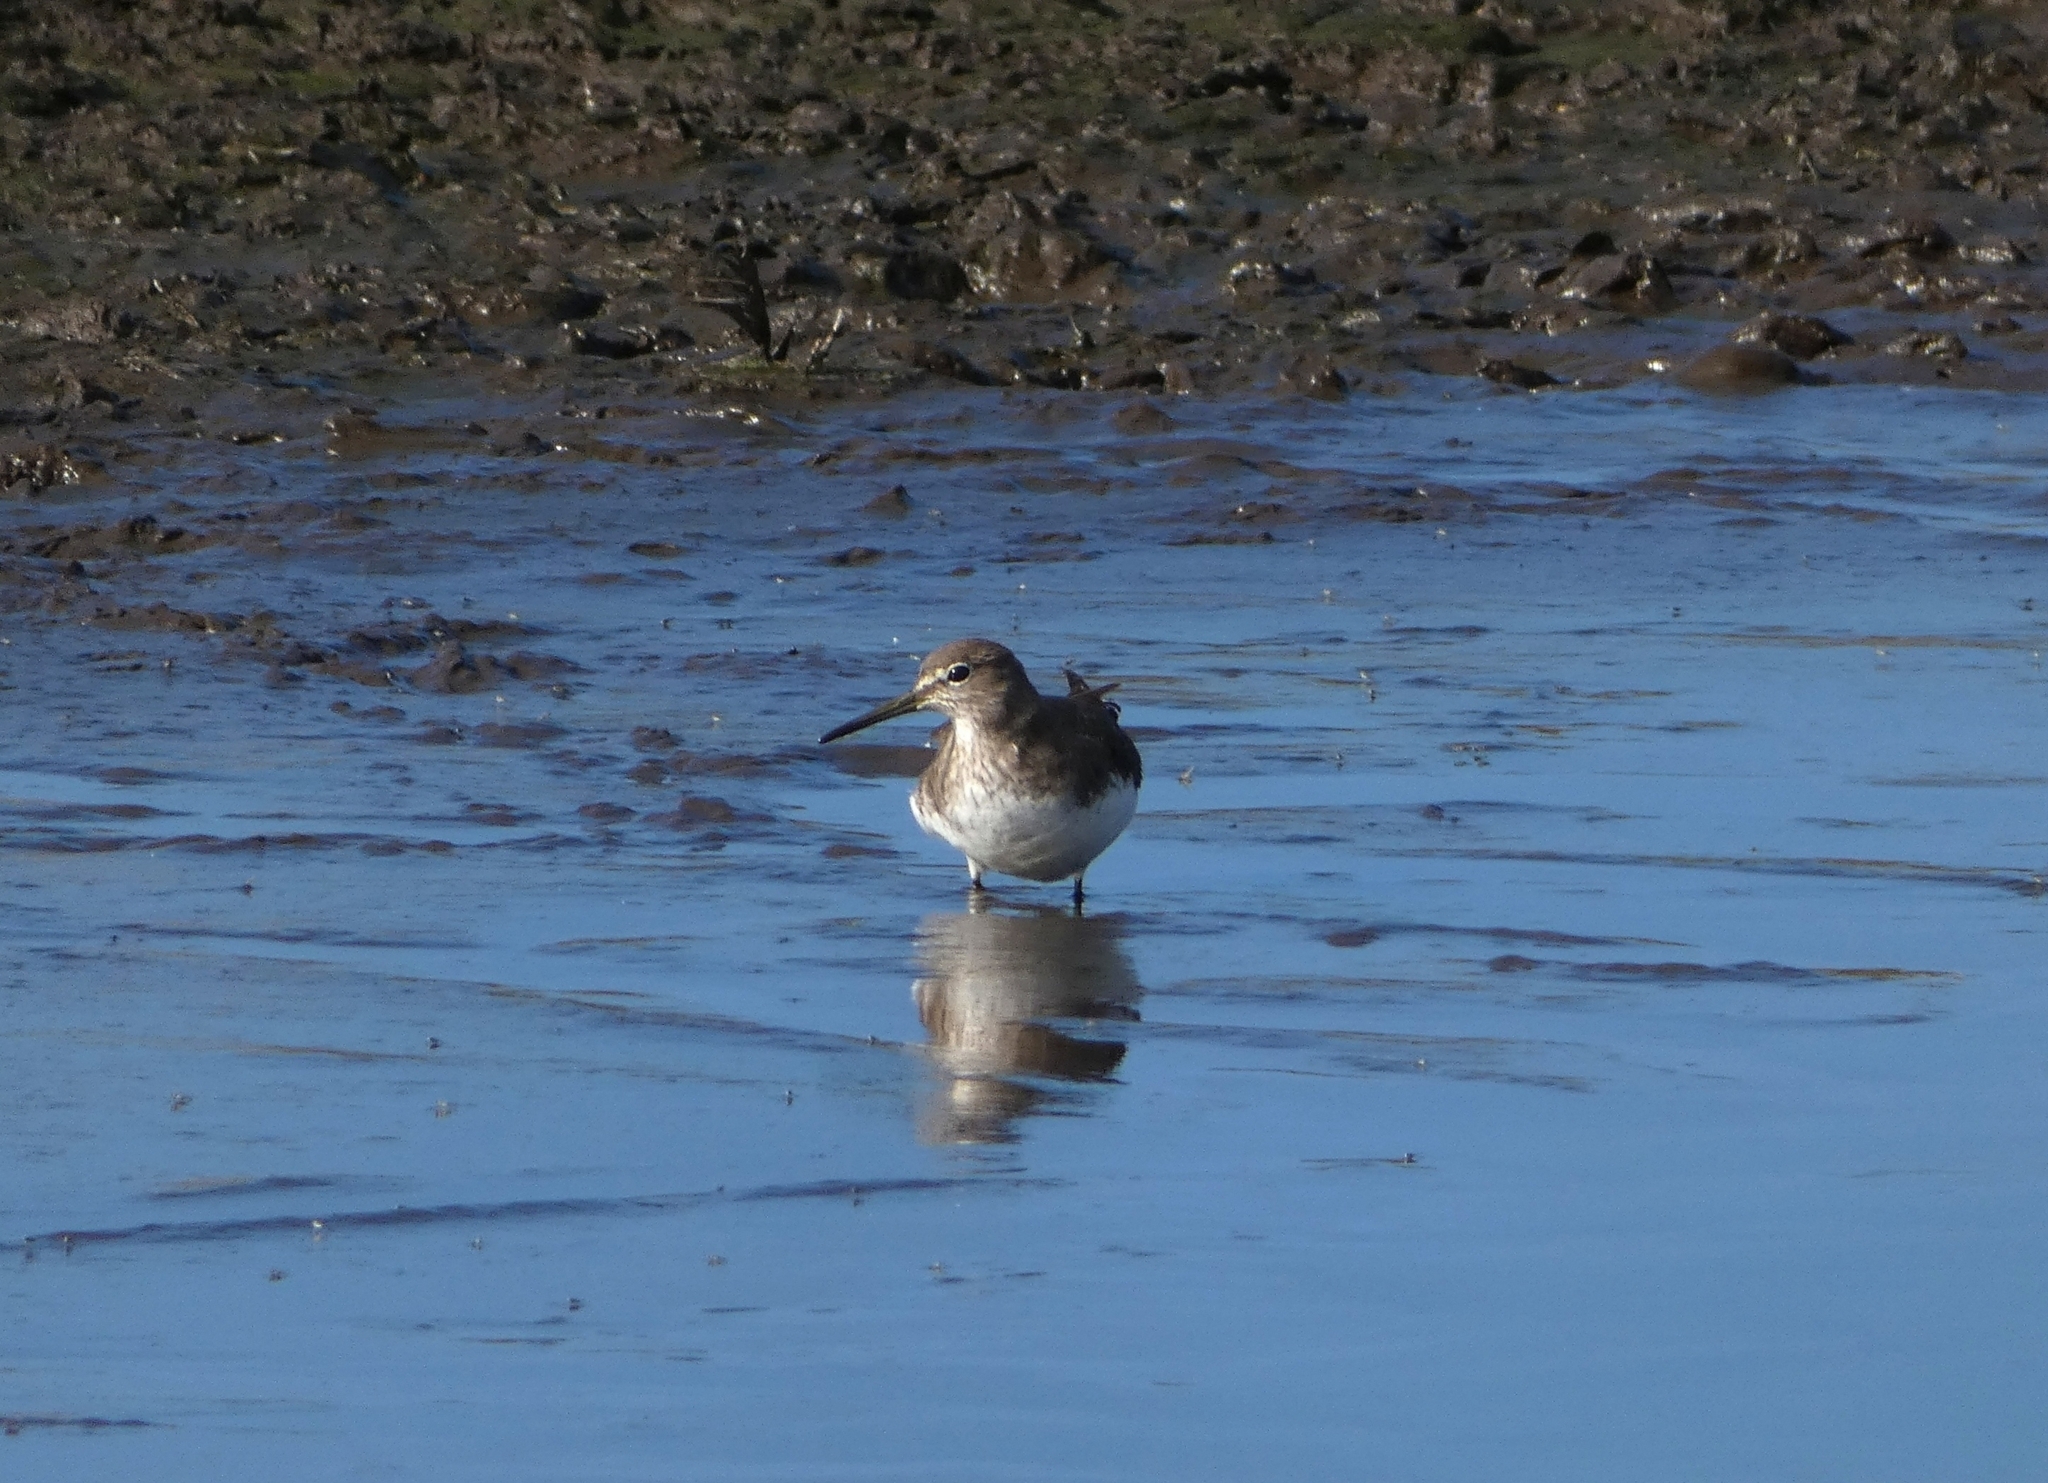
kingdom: Animalia
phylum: Chordata
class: Aves
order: Charadriiformes
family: Scolopacidae
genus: Tringa
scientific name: Tringa ochropus
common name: Green sandpiper
